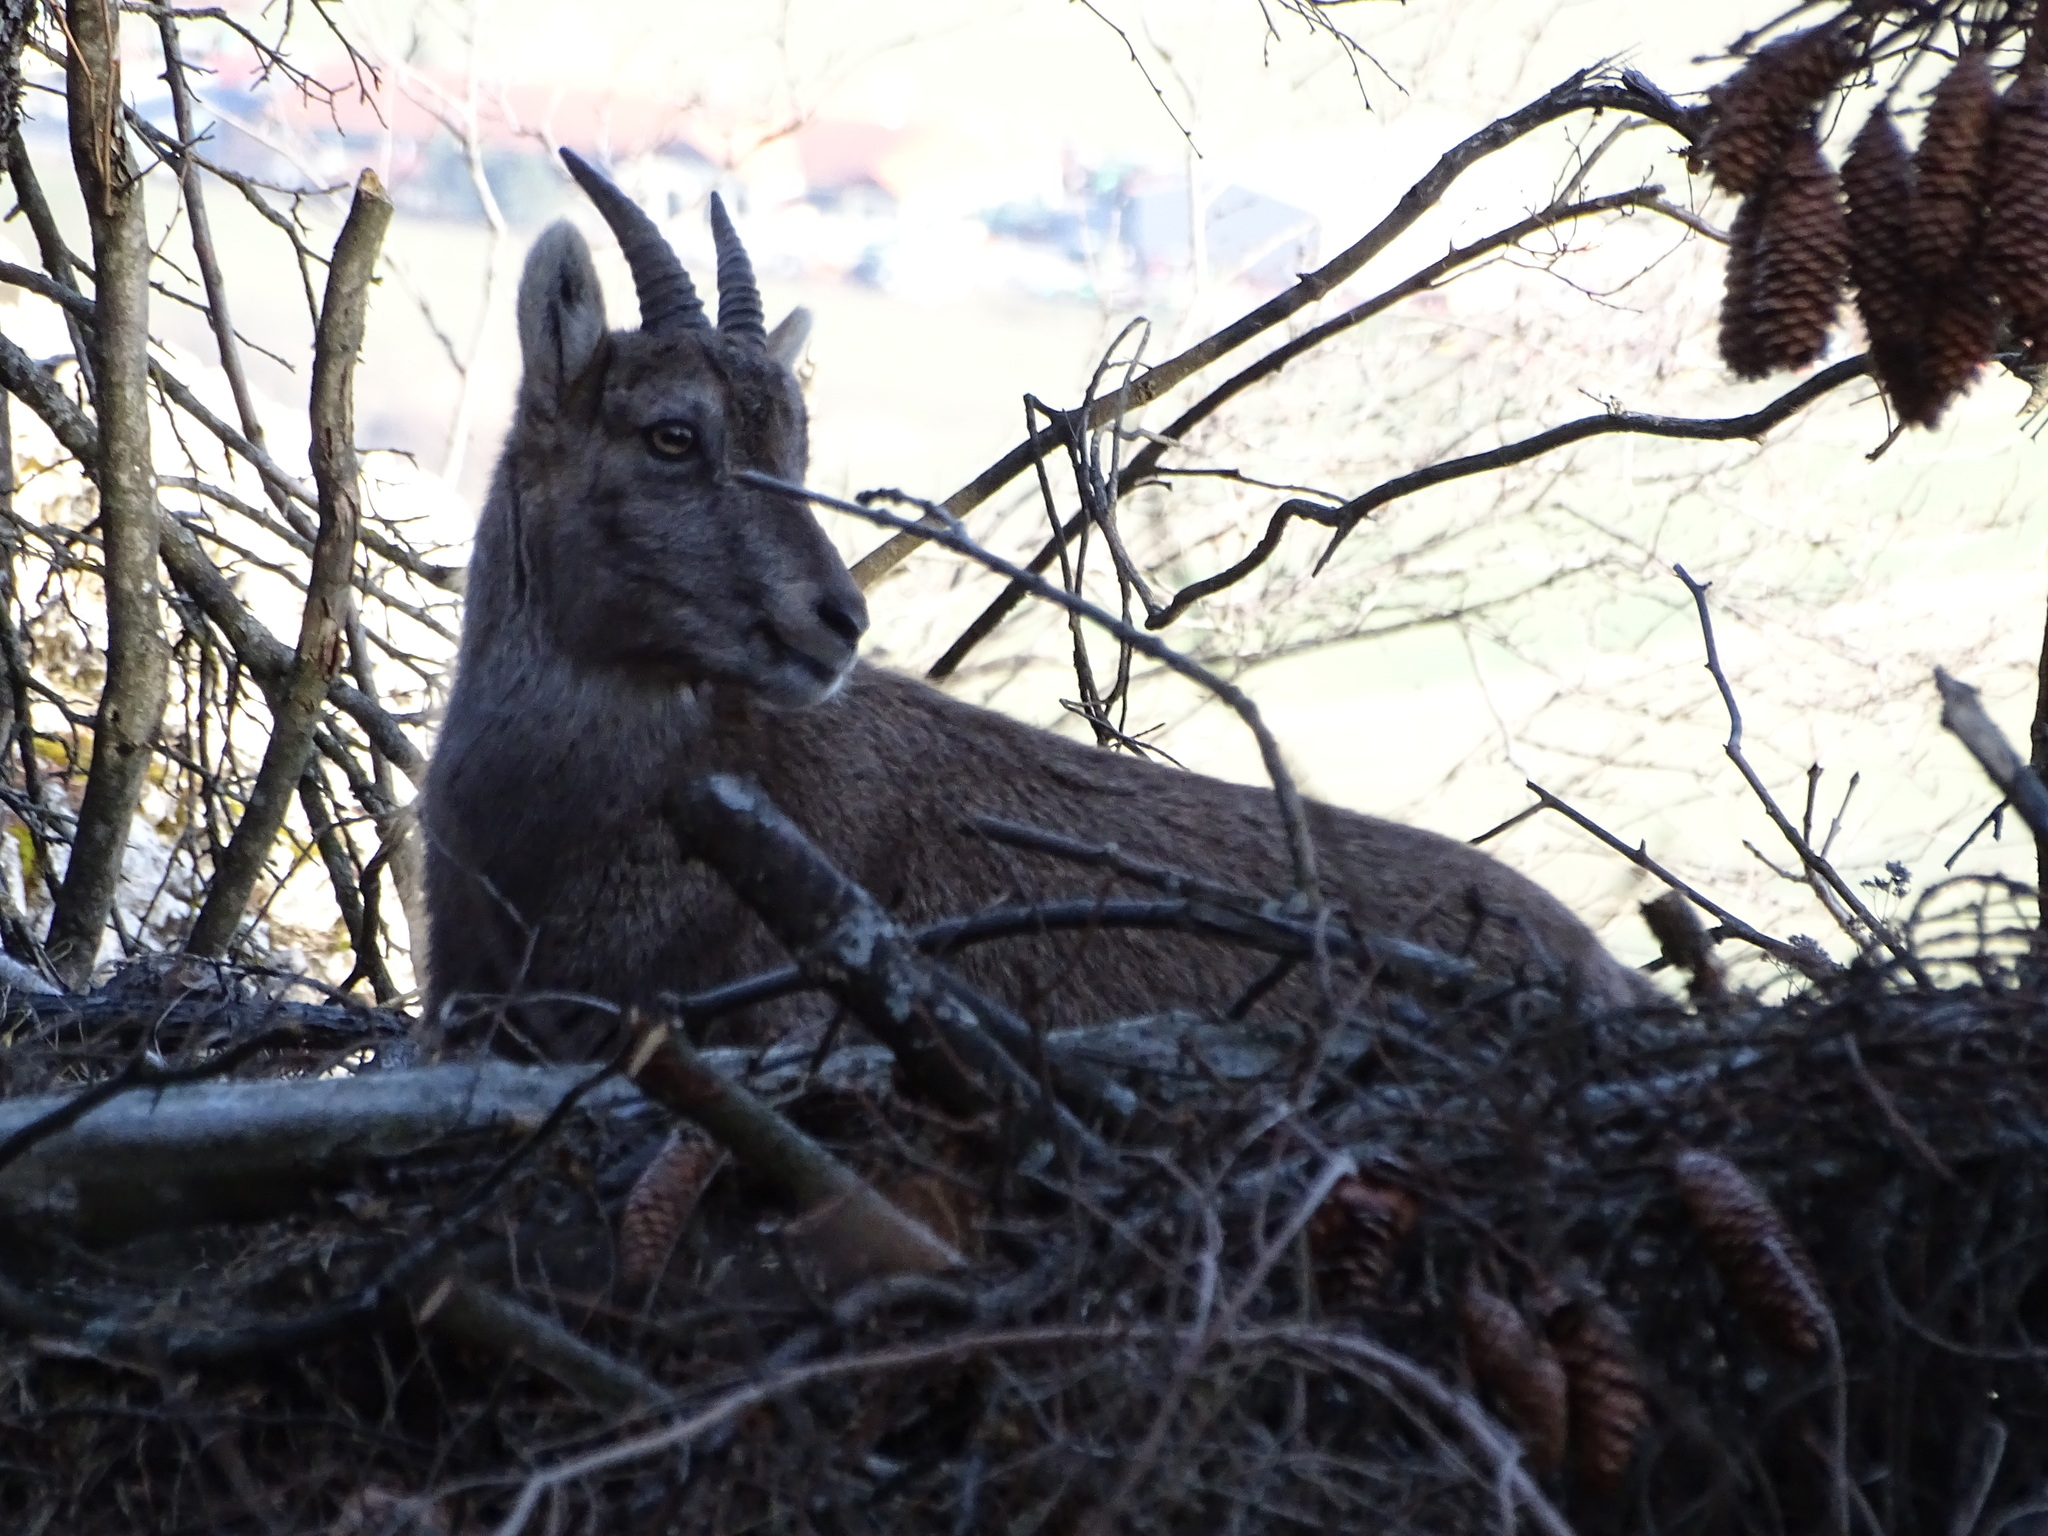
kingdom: Animalia
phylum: Chordata
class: Mammalia
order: Artiodactyla
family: Bovidae
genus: Capra
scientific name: Capra ibex
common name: Alpine ibex
